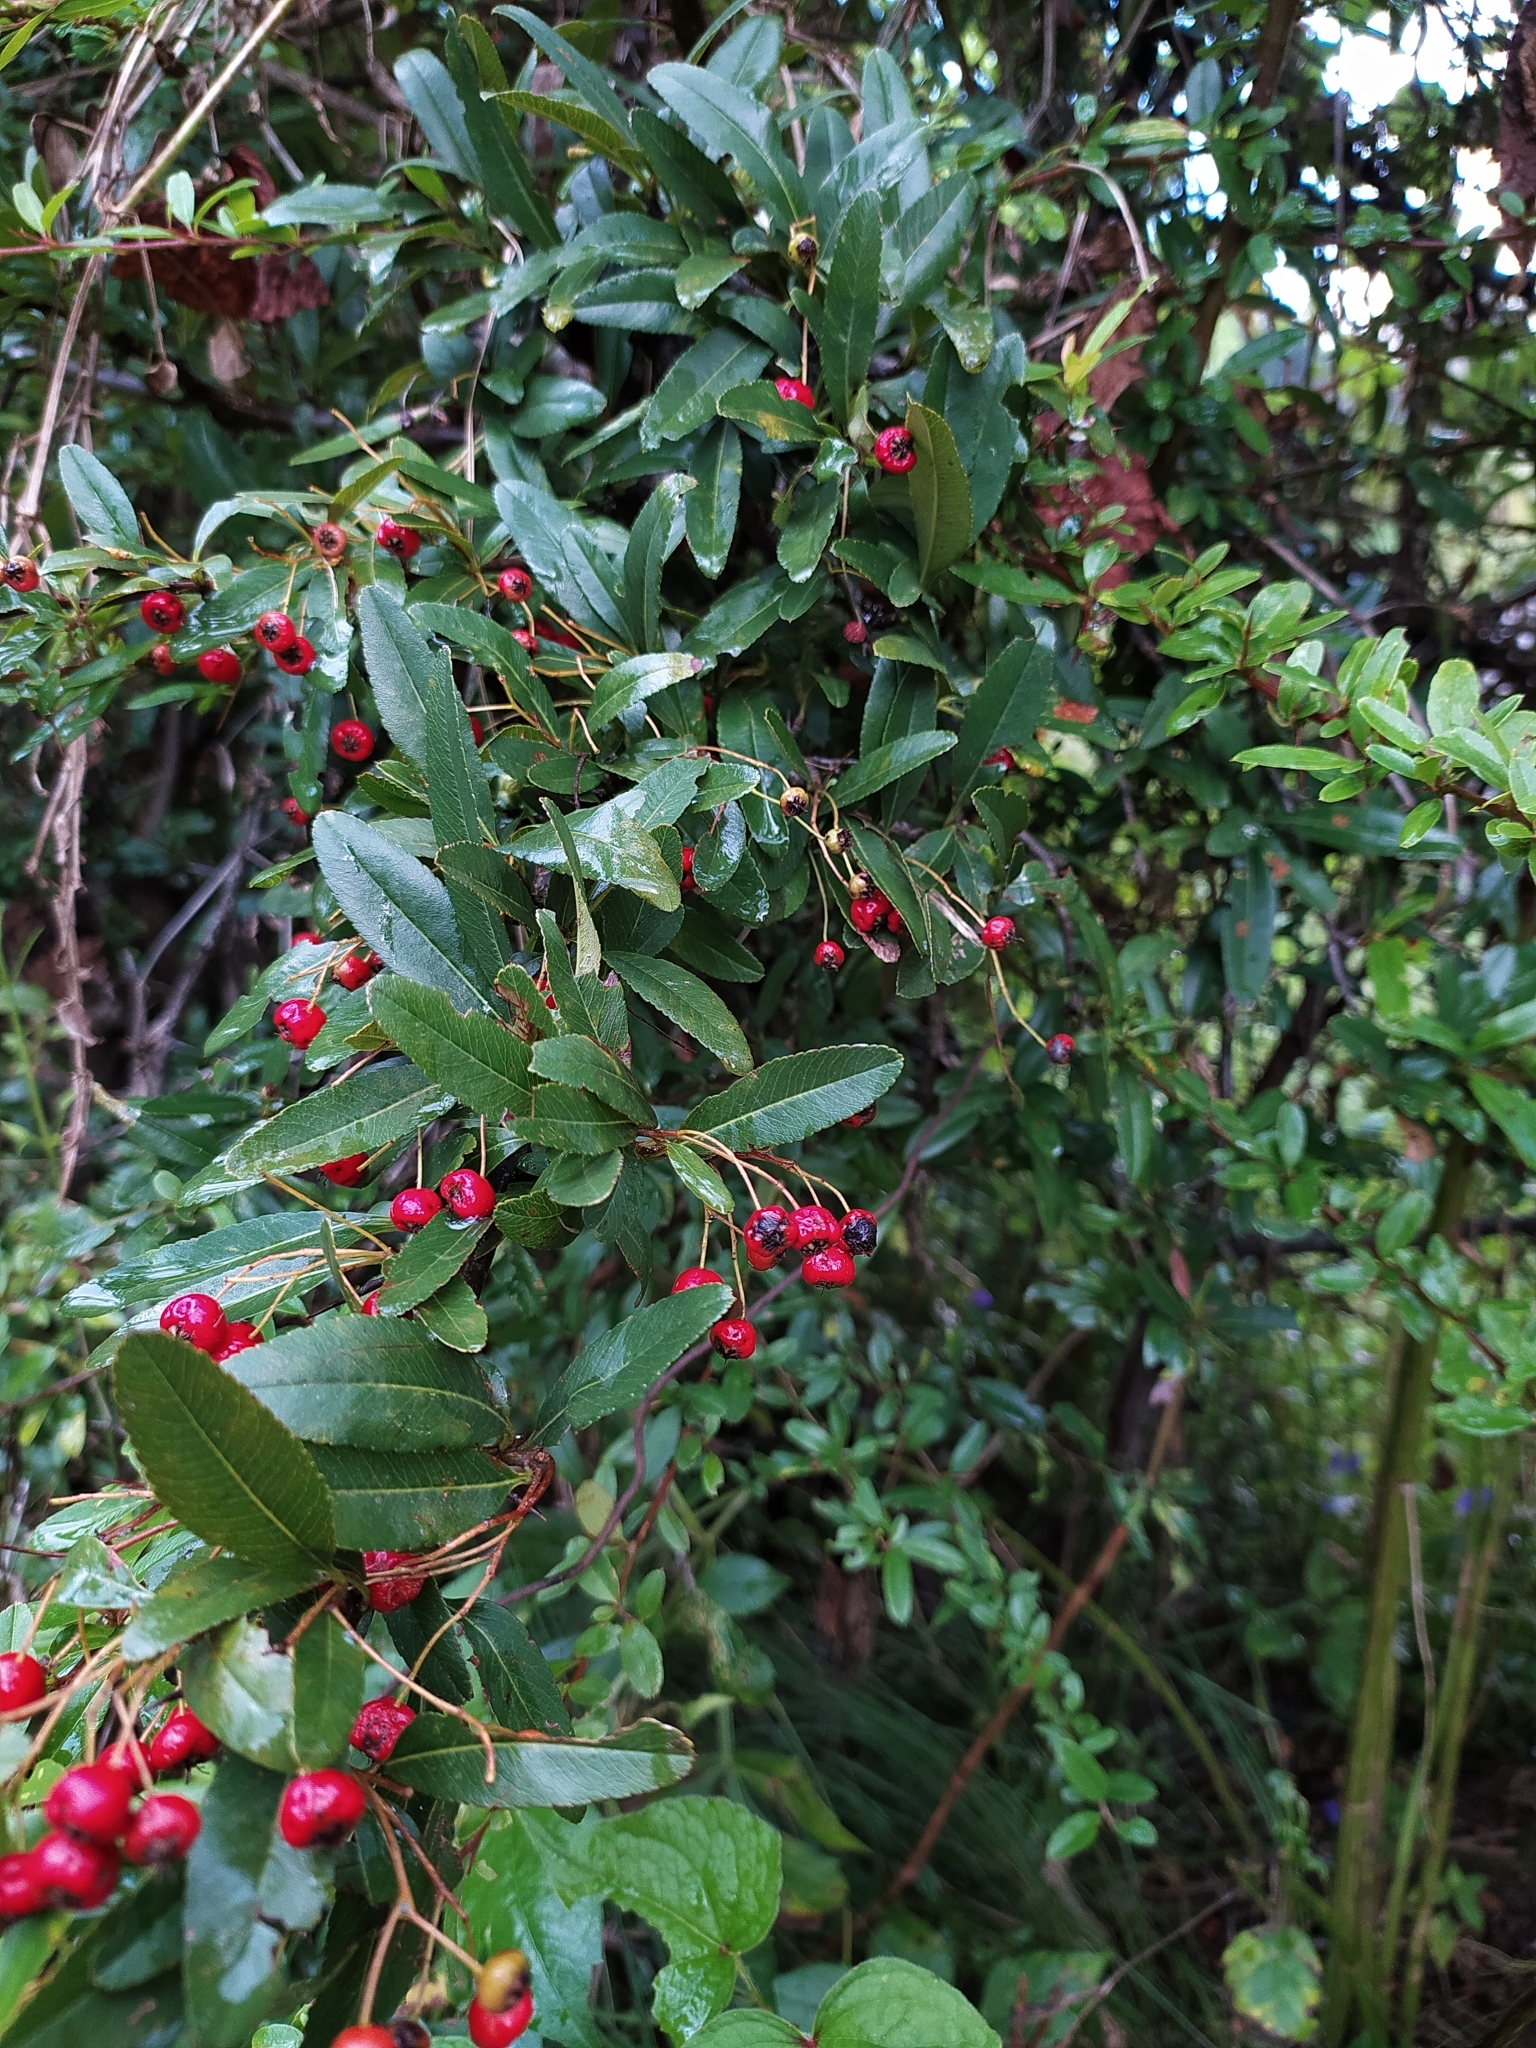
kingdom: Plantae
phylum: Tracheophyta
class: Magnoliopsida
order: Rosales
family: Rosaceae
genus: Pyracantha
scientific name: Pyracantha crenulata
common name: Nepalese firethorn
